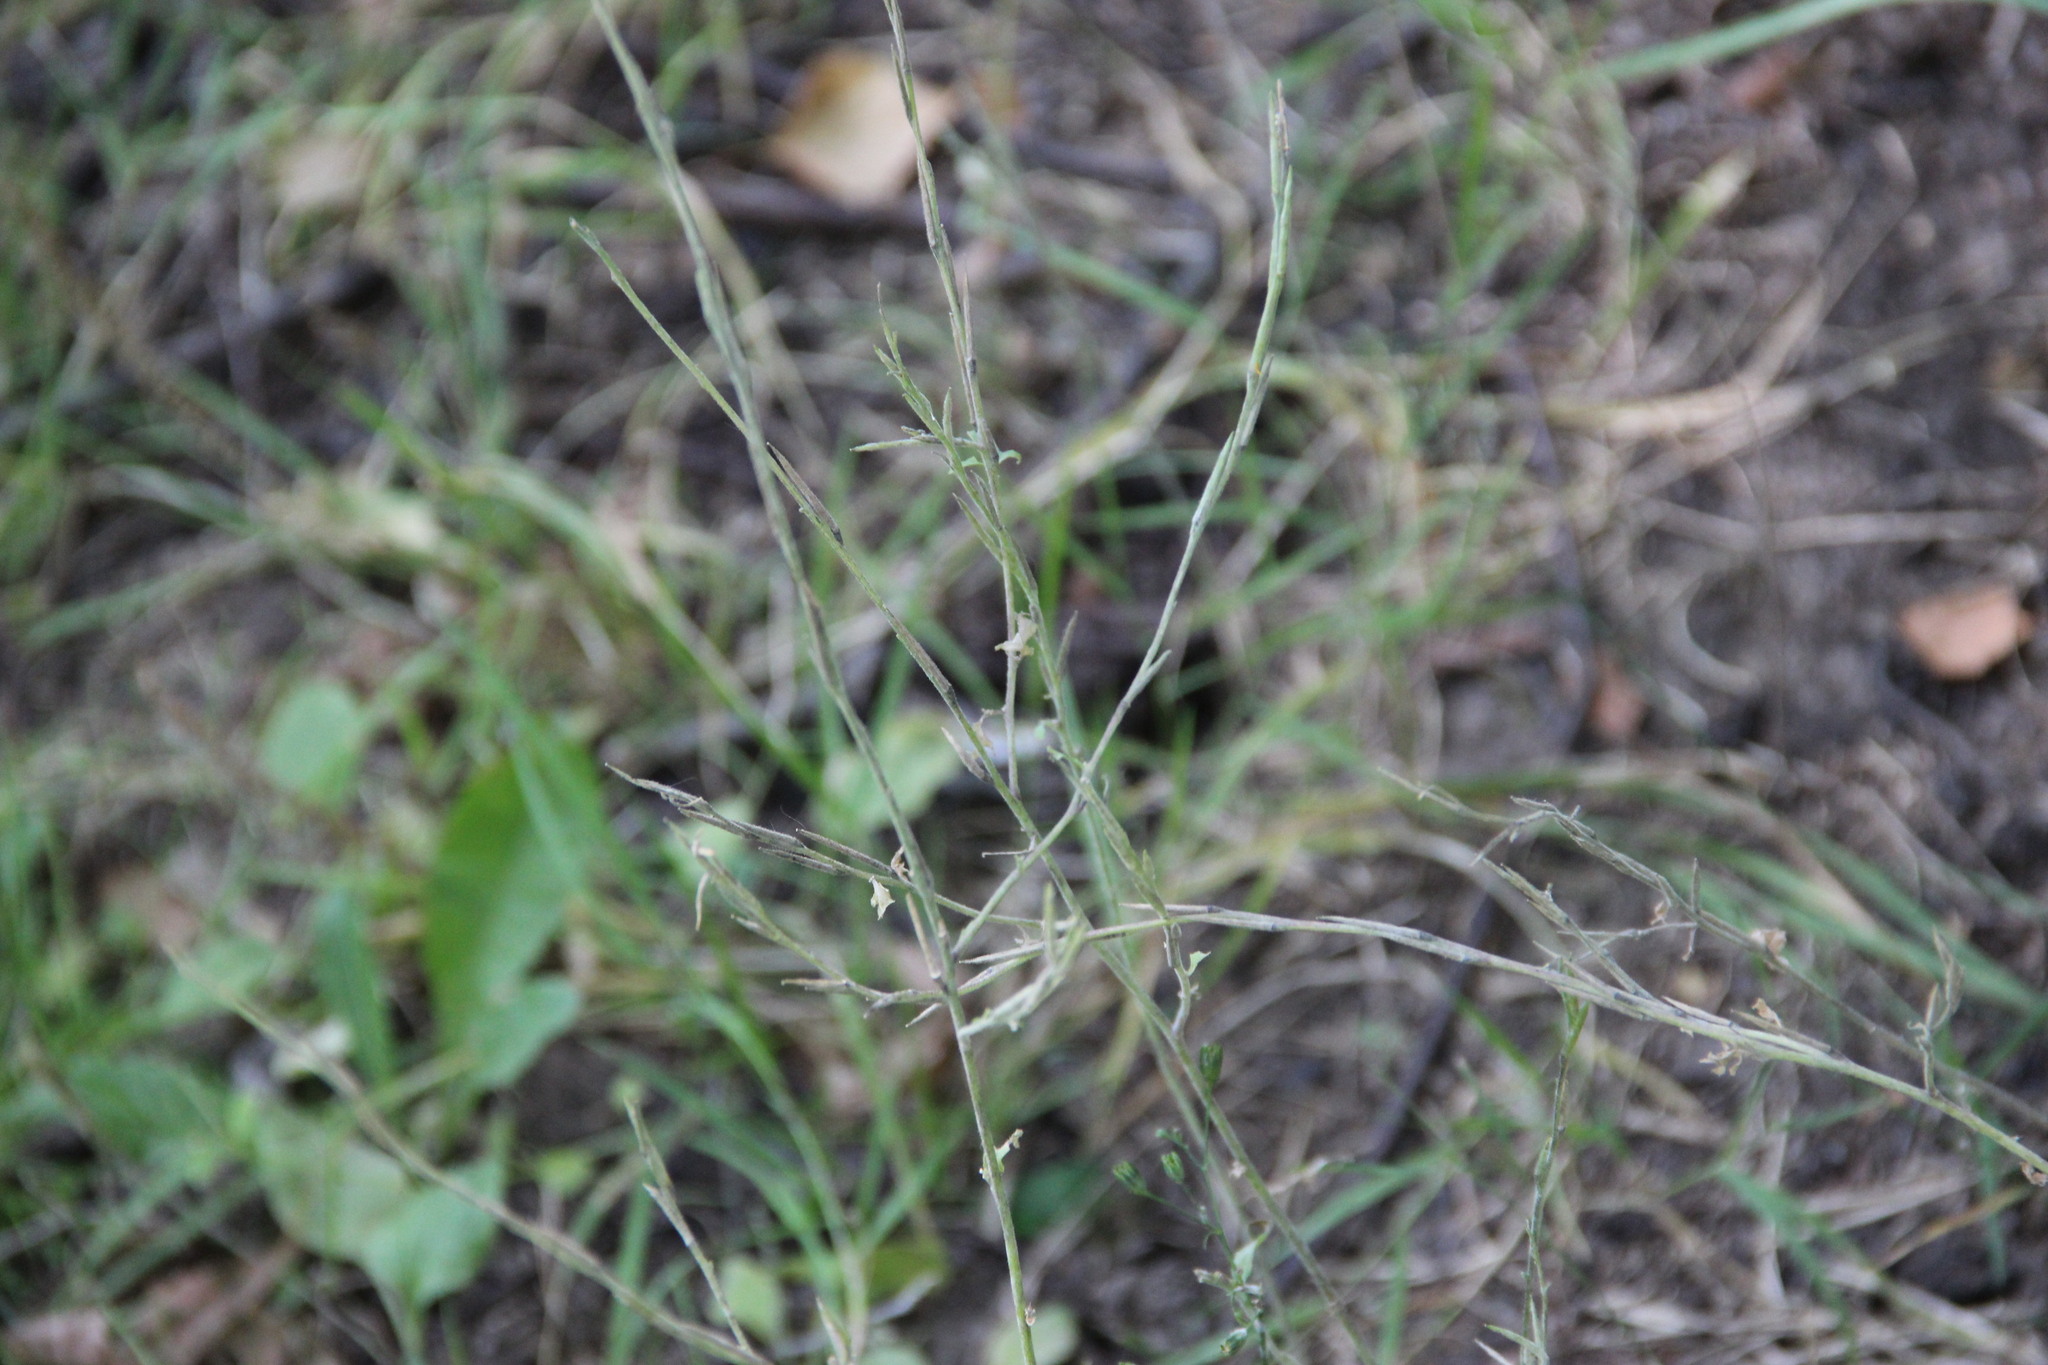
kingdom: Plantae
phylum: Tracheophyta
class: Magnoliopsida
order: Brassicales
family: Brassicaceae
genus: Sisymbrium
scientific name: Sisymbrium officinale
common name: Hedge mustard
